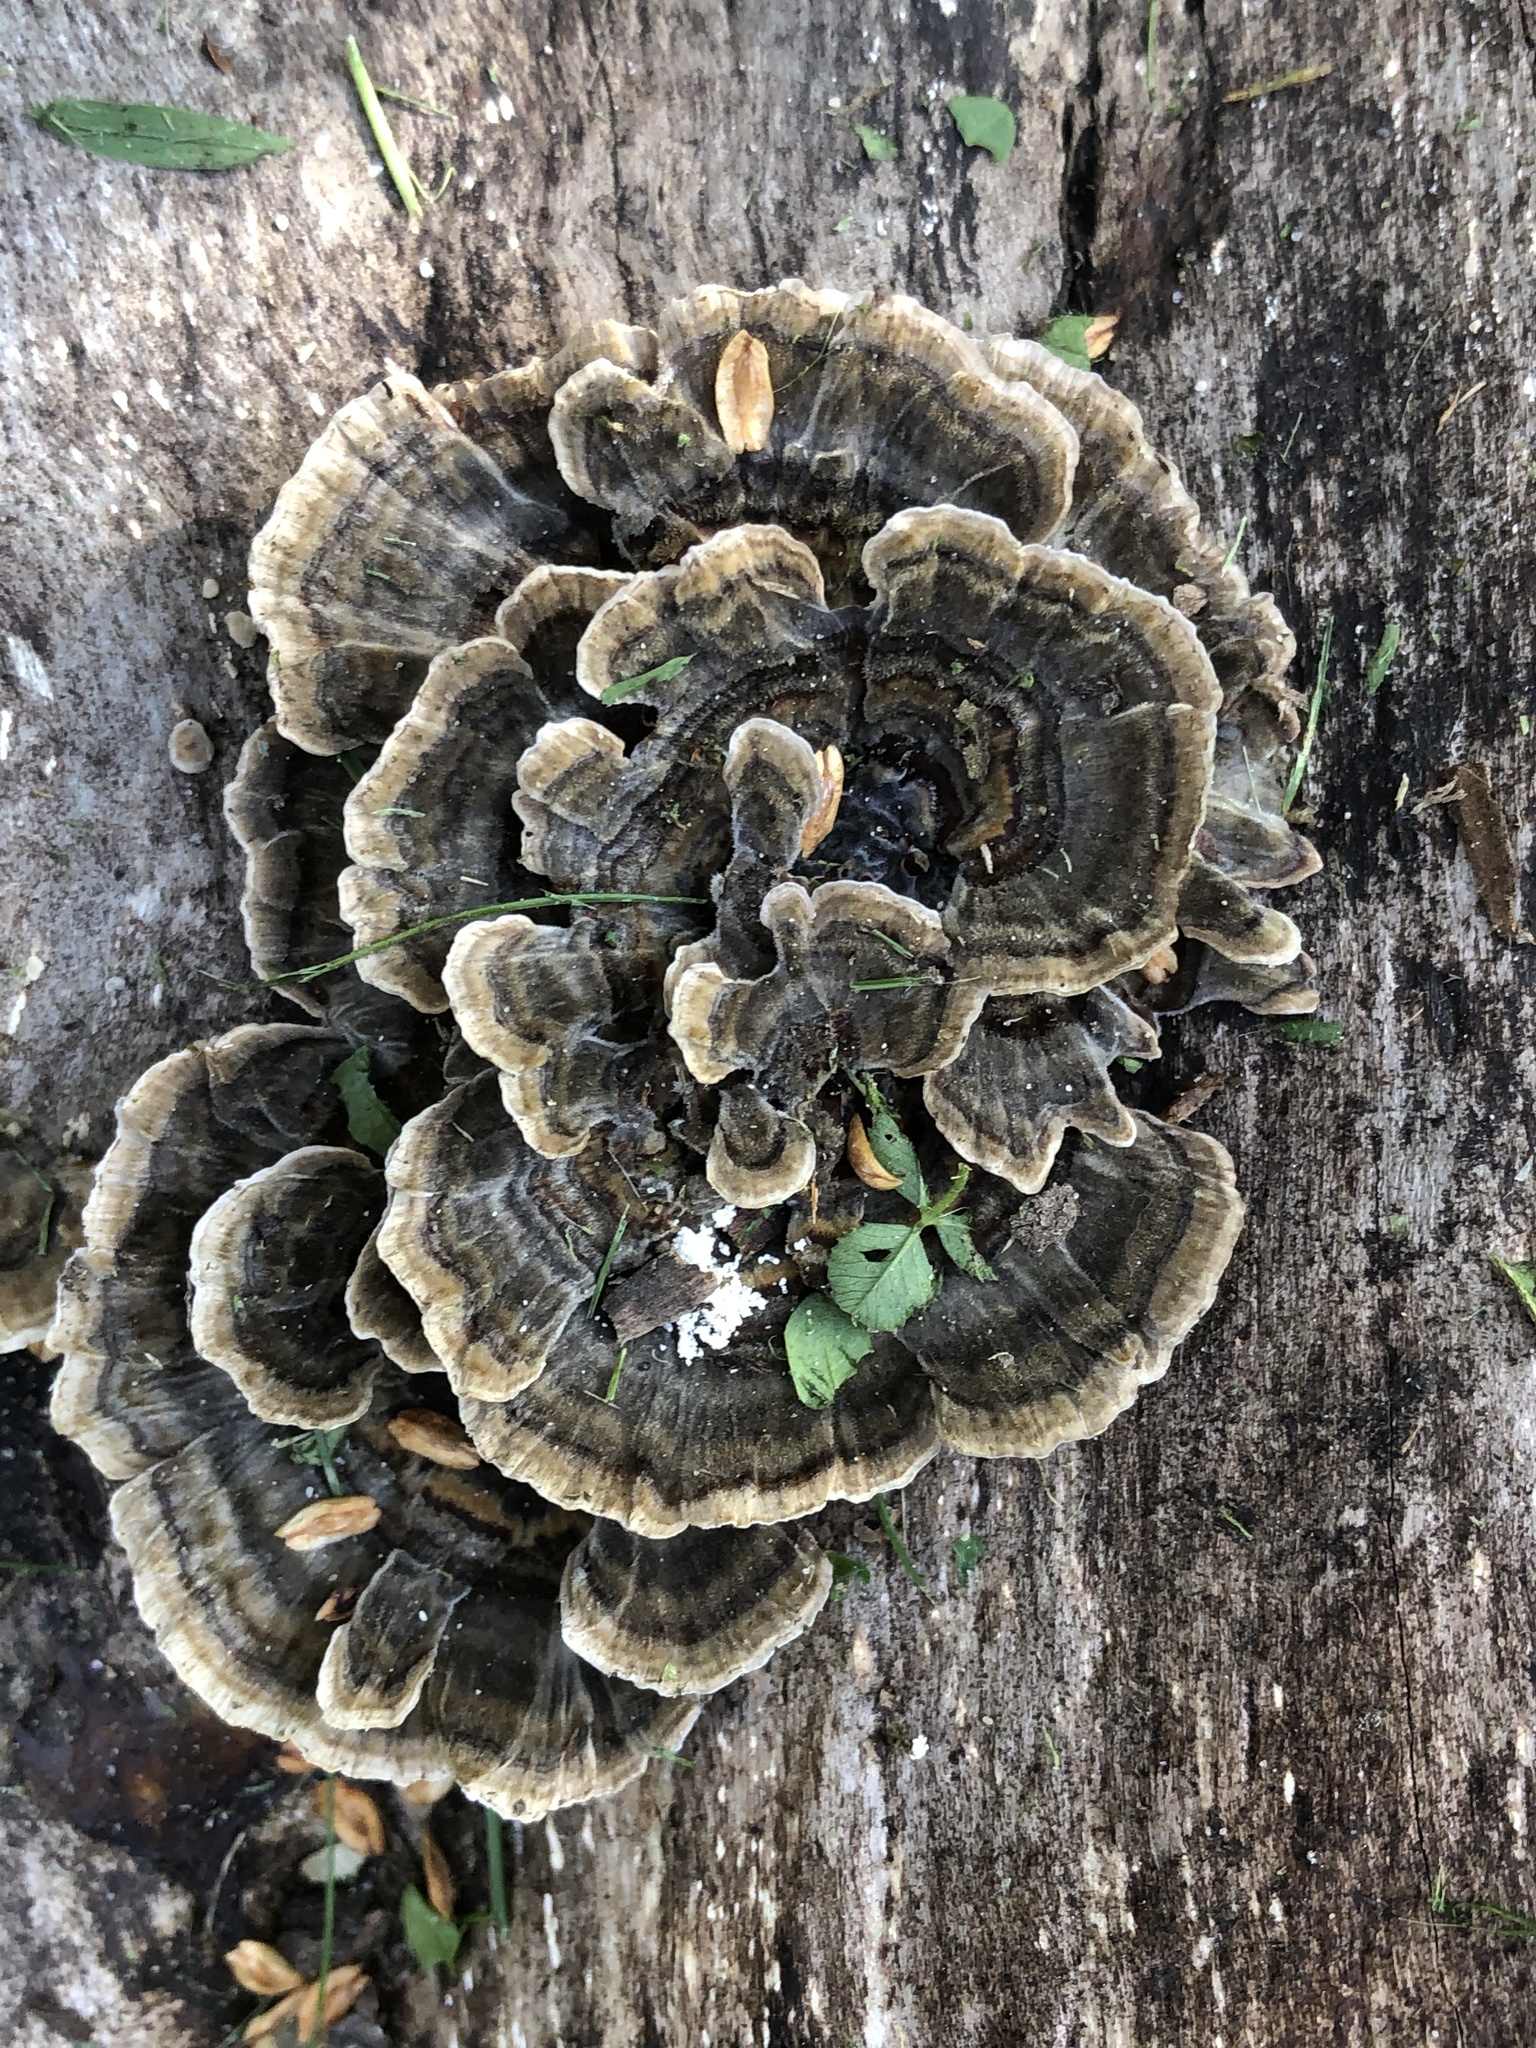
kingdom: Fungi
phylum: Basidiomycota
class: Agaricomycetes
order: Polyporales
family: Polyporaceae
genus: Trametes
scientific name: Trametes versicolor
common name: Turkeytail
